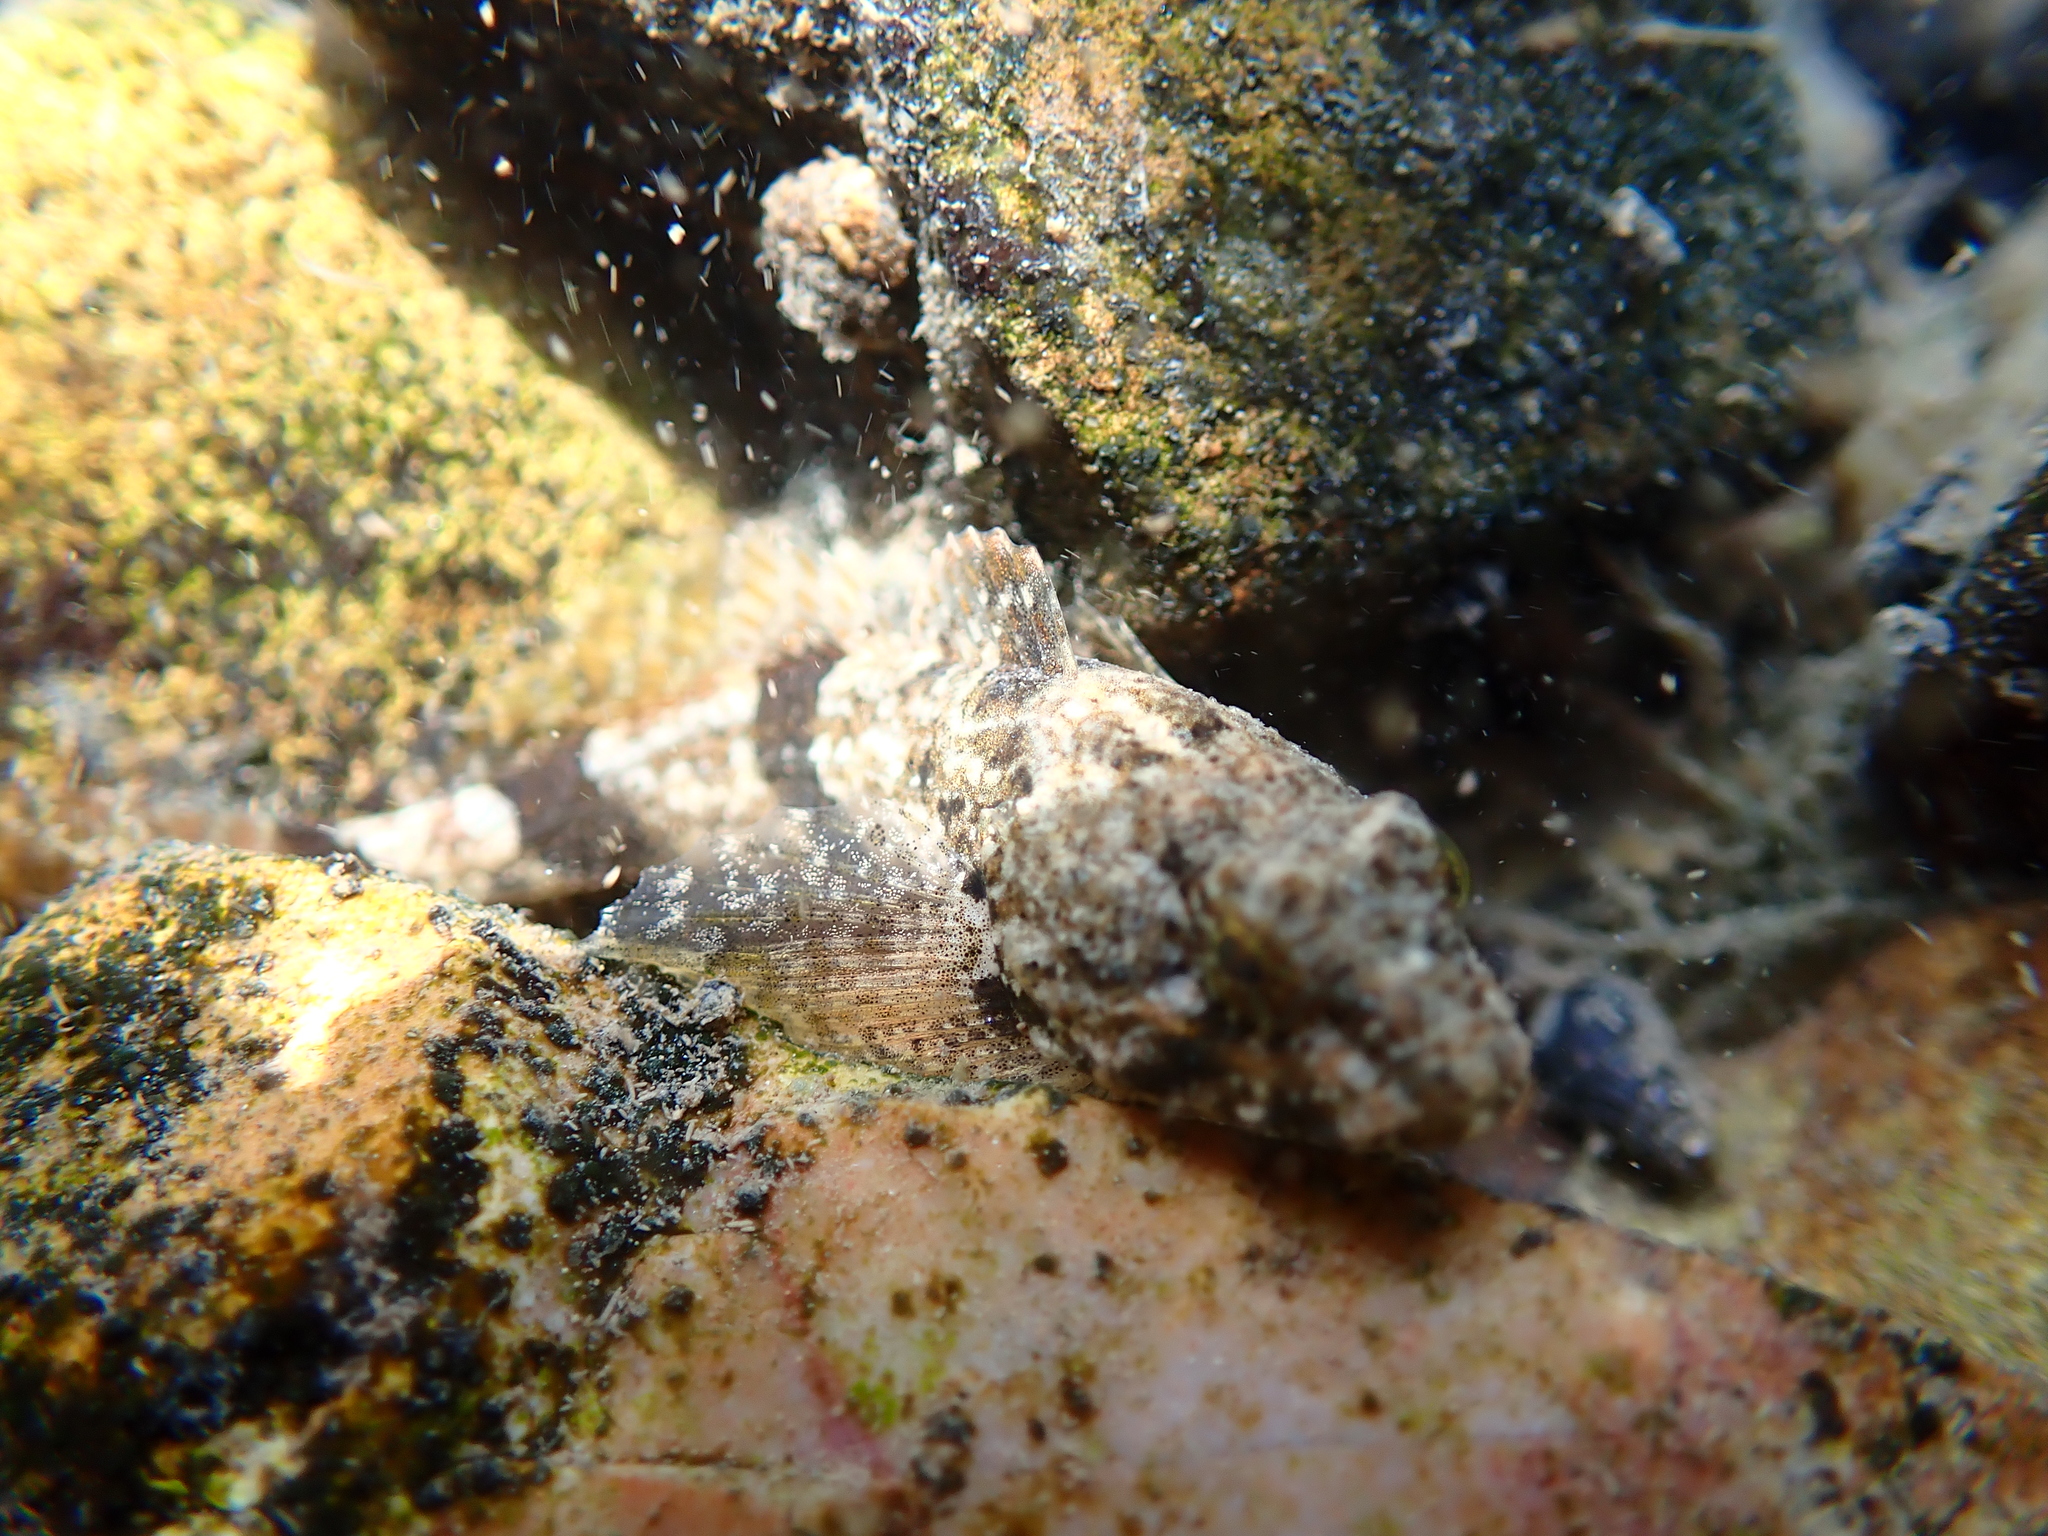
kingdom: Animalia
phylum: Chordata
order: Scorpaeniformes
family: Cottidae
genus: Cottus
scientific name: Cottus carolinae
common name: Banded sculpin
